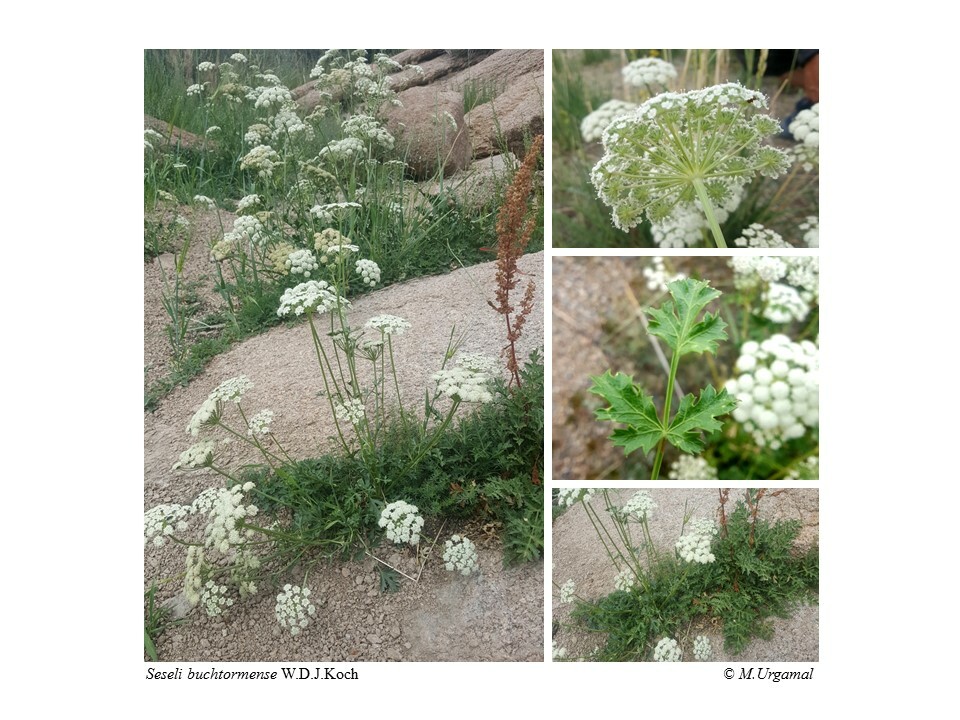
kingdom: Plantae
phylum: Tracheophyta
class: Magnoliopsida
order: Apiales
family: Apiaceae
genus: Seseli
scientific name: Seseli buchtormense
